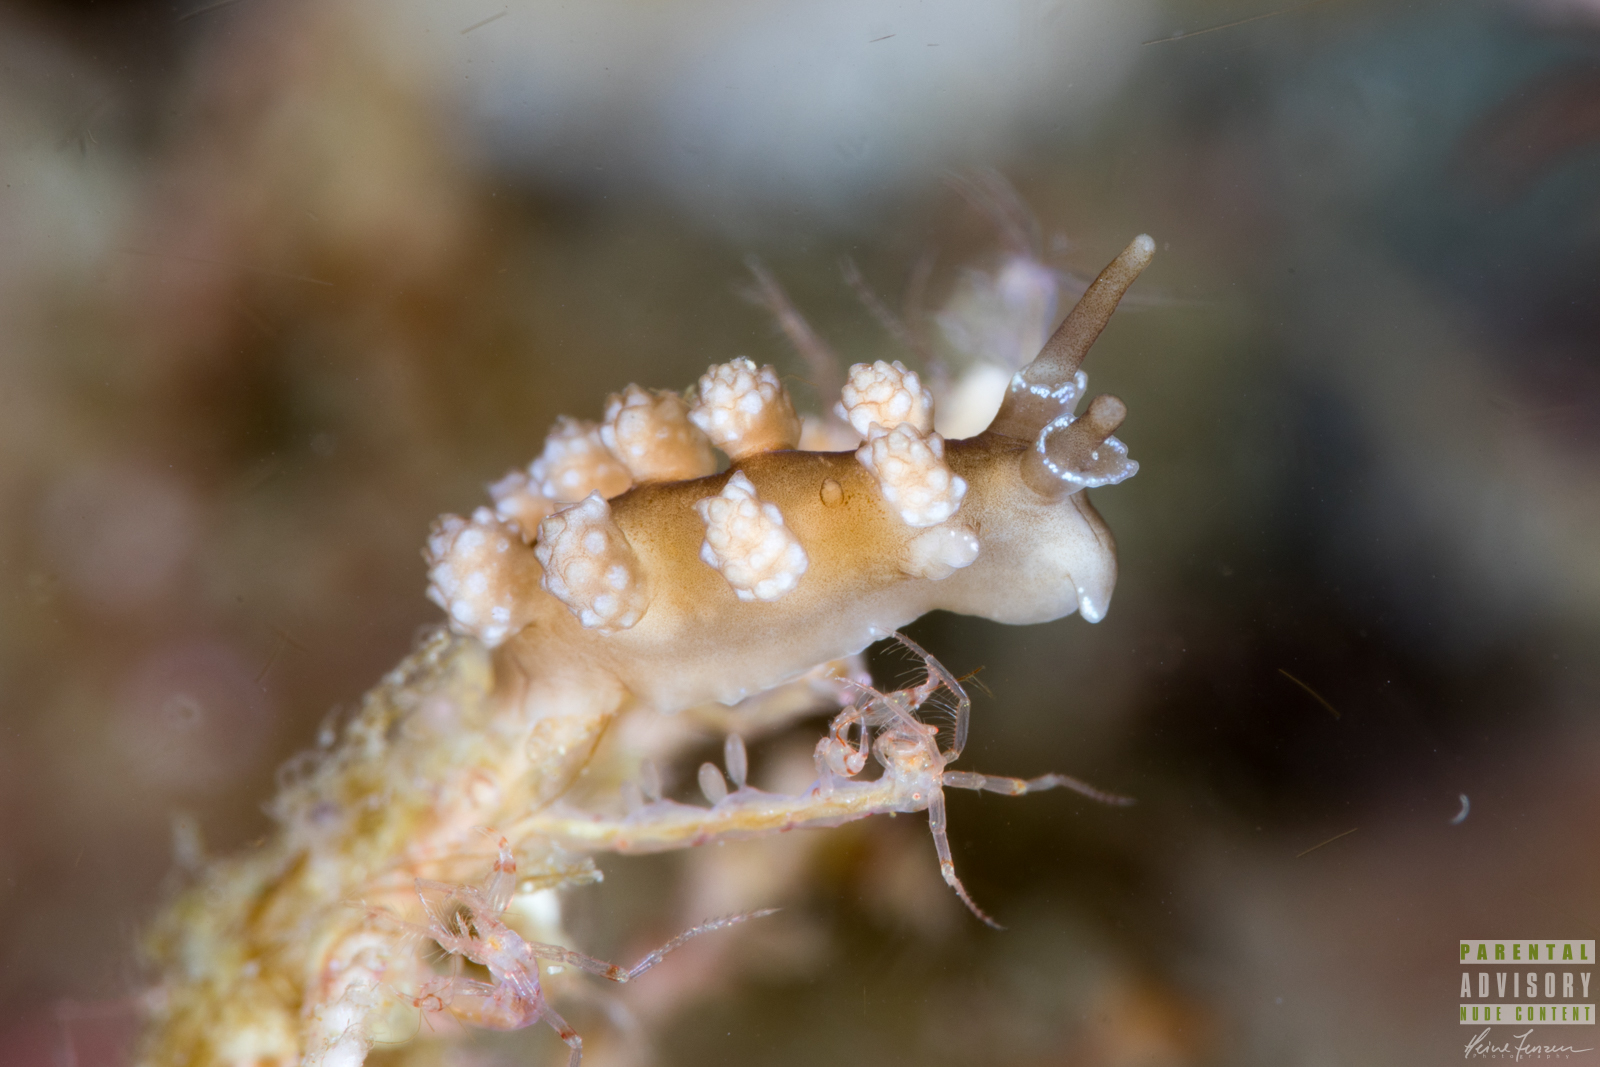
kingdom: Animalia
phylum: Mollusca
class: Gastropoda
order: Nudibranchia
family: Dotidae
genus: Doto
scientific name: Doto fragilis
